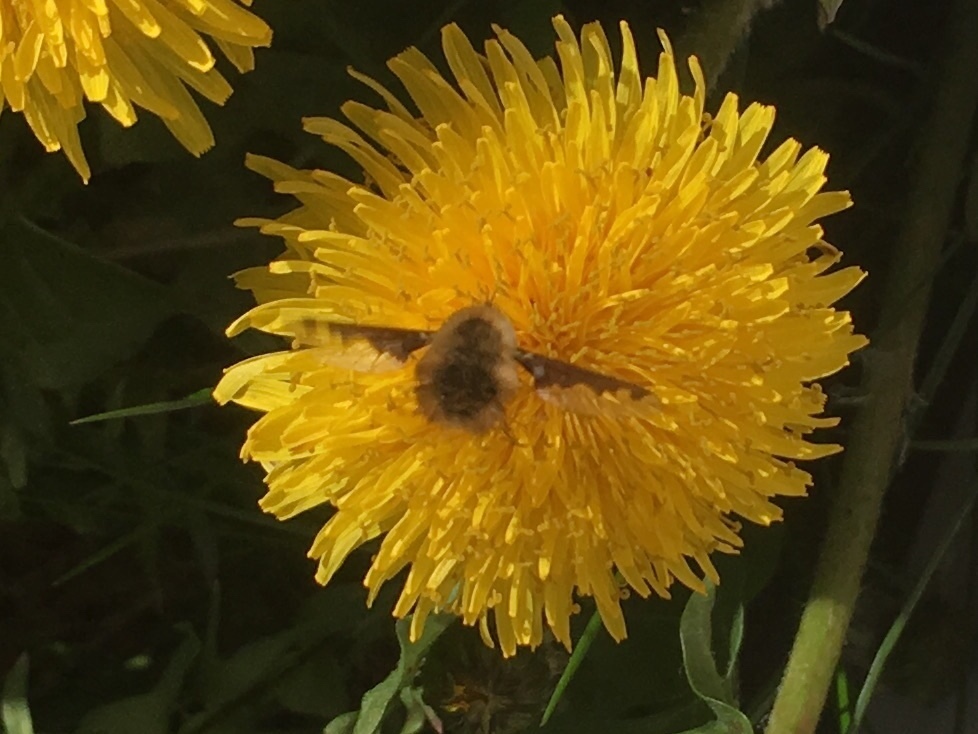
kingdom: Animalia
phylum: Arthropoda
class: Insecta
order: Diptera
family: Bombyliidae
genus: Bombylius
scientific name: Bombylius major
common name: Bee fly
